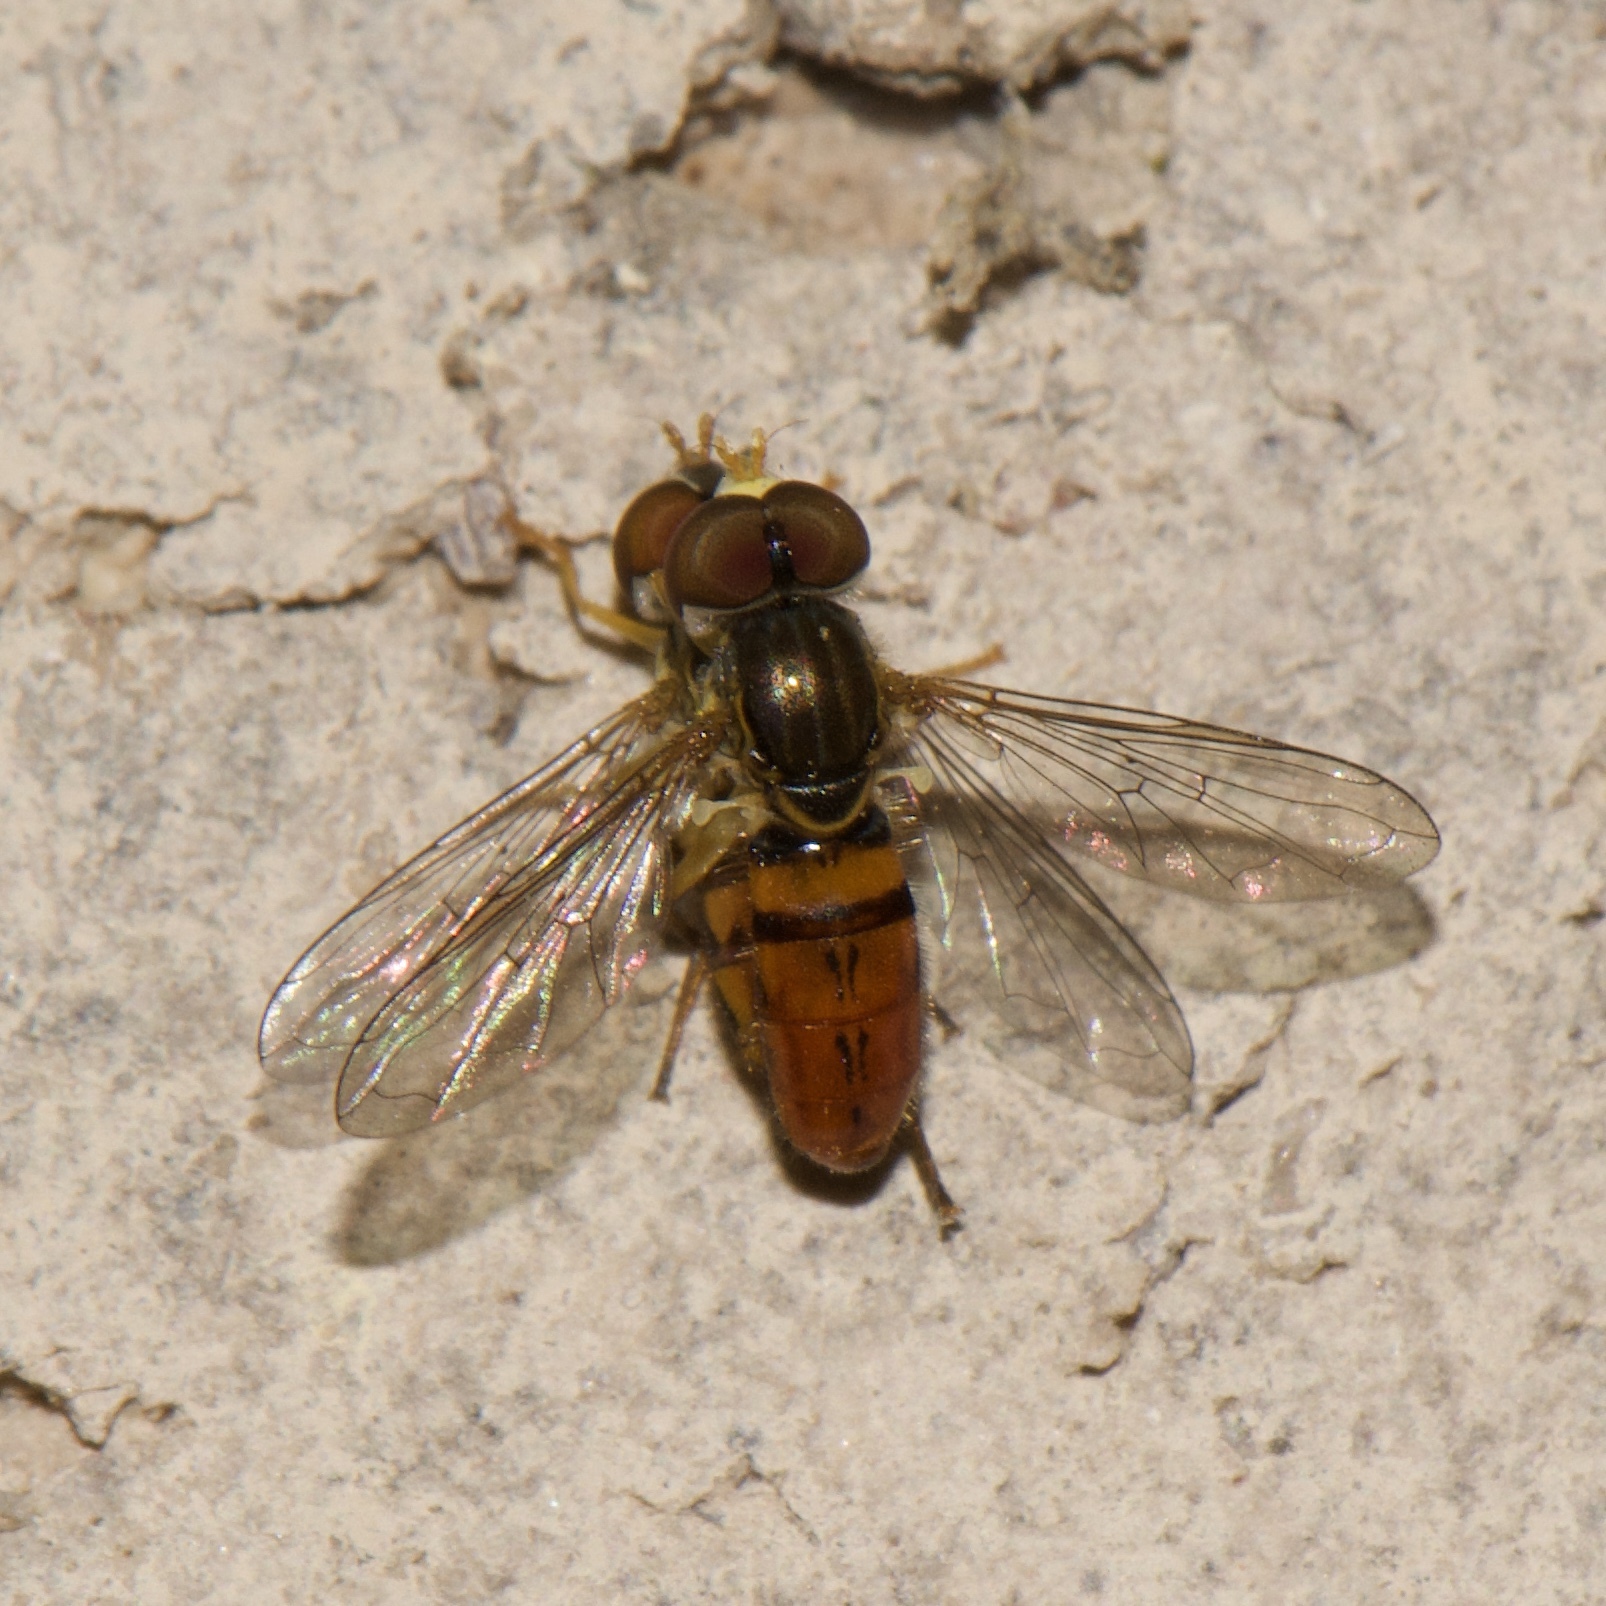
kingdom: Animalia
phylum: Arthropoda
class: Insecta
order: Diptera
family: Syrphidae
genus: Toxomerus
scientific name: Toxomerus boscii
